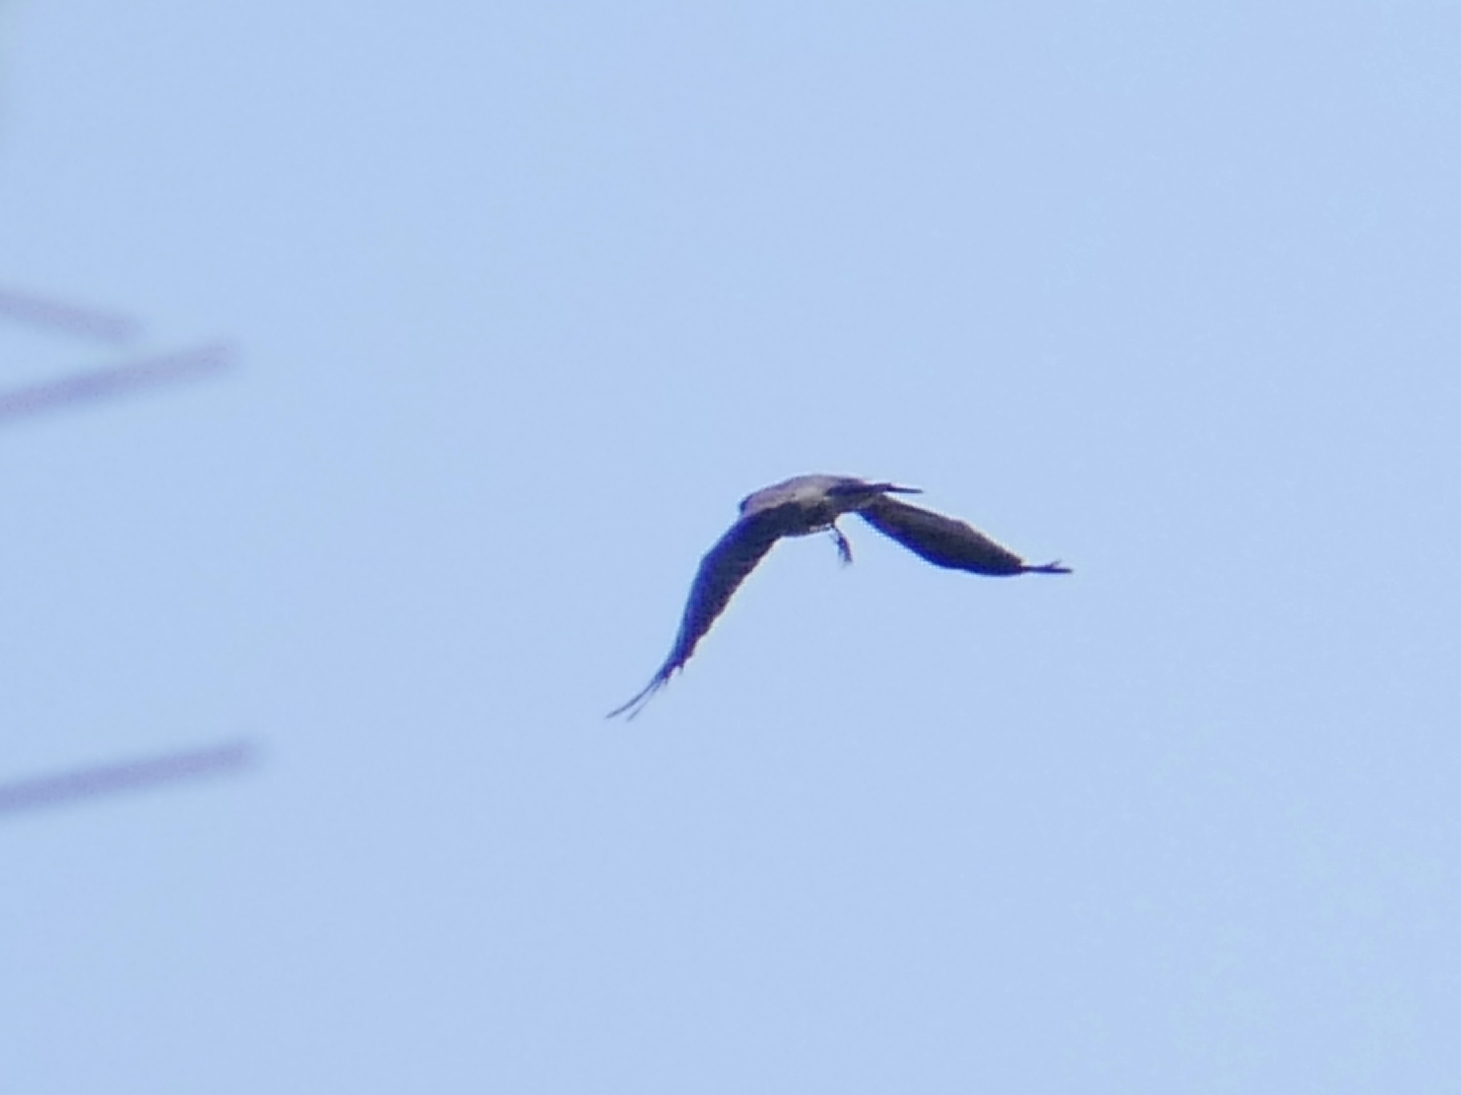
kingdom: Animalia
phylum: Chordata
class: Aves
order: Passeriformes
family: Corvidae
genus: Corvus
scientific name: Corvus cornix
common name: Hooded crow
